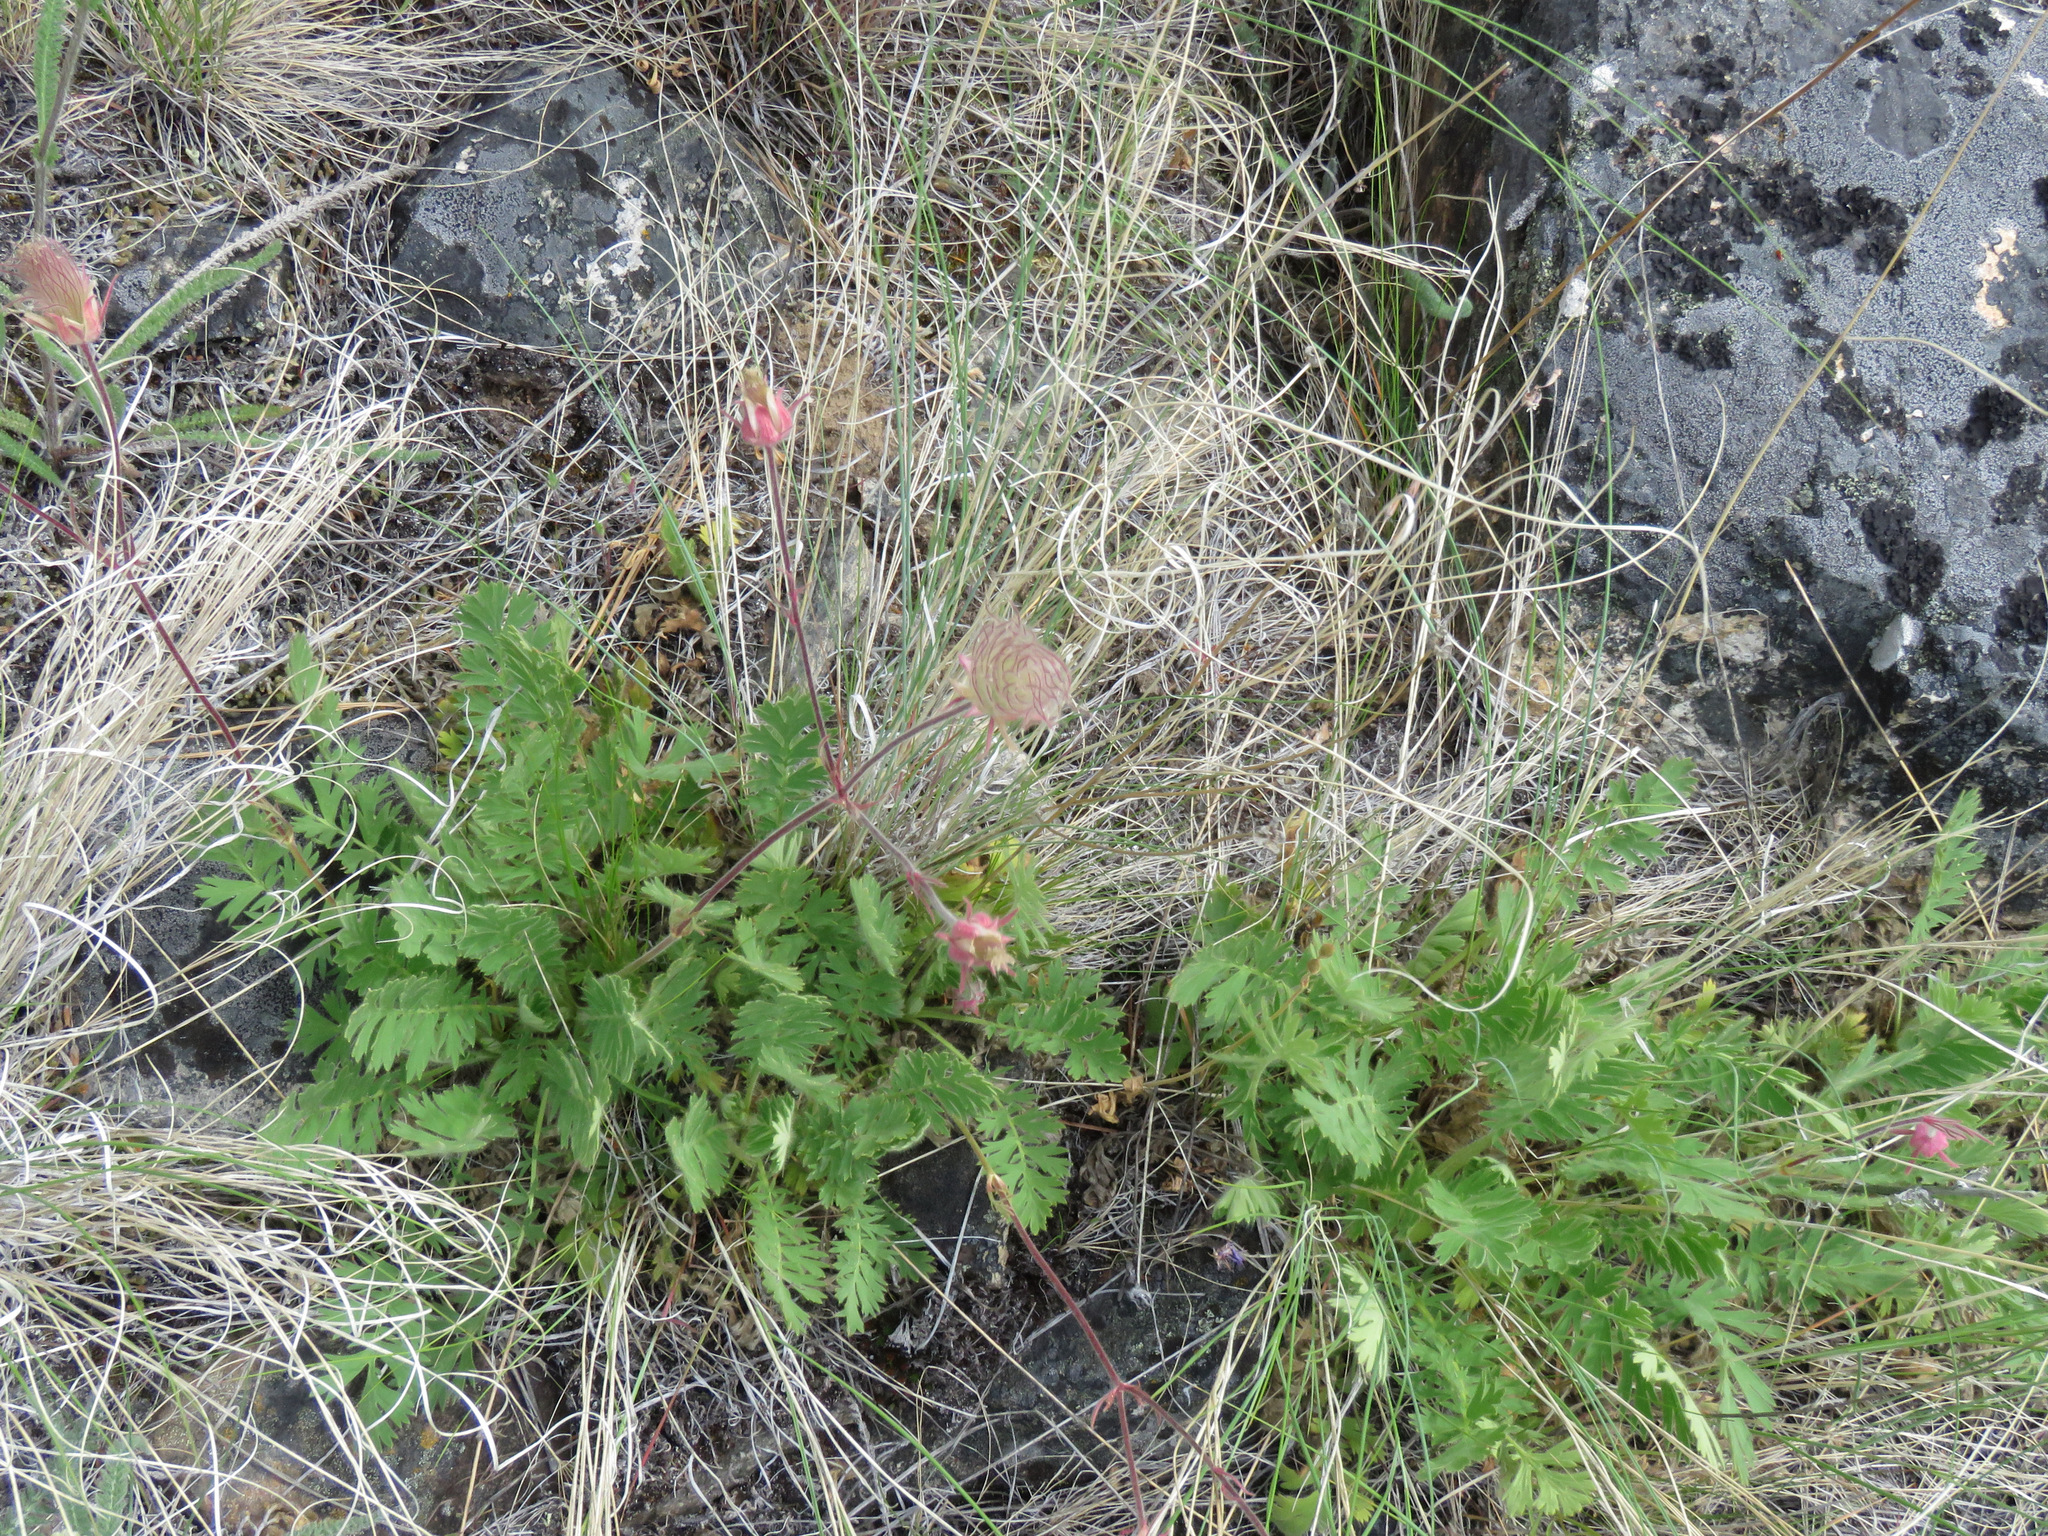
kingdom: Plantae
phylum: Tracheophyta
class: Magnoliopsida
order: Rosales
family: Rosaceae
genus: Geum
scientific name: Geum triflorum
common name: Old man's whiskers
